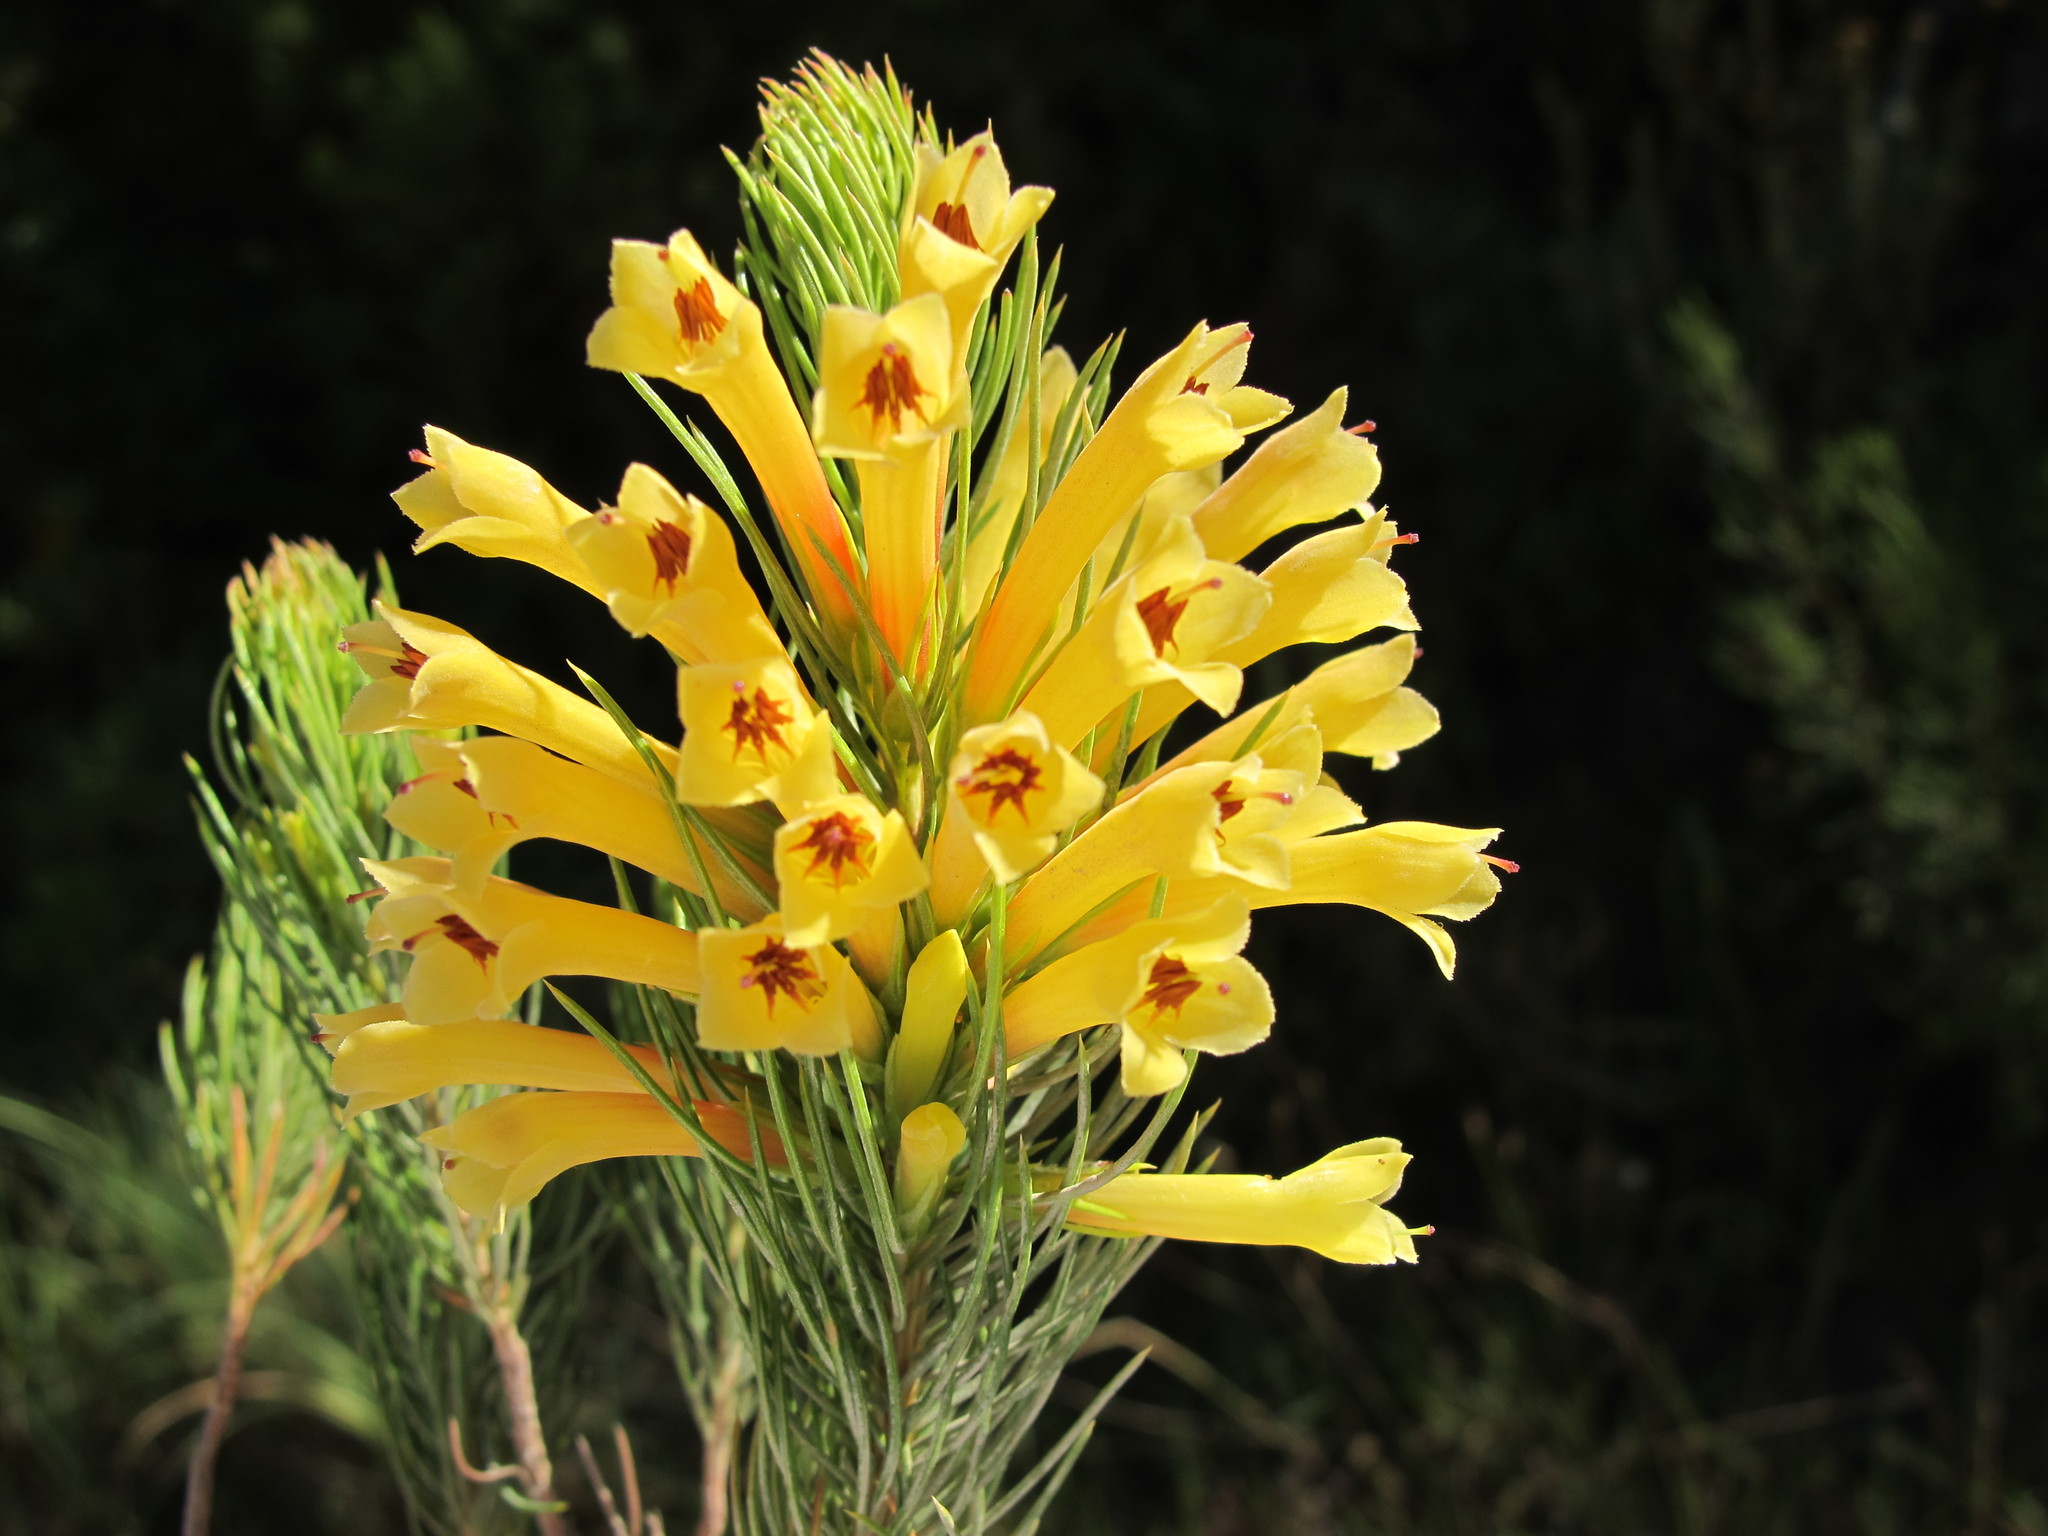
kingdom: Plantae
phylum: Tracheophyta
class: Magnoliopsida
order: Ericales
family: Ericaceae
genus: Erica
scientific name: Erica grandiflora
